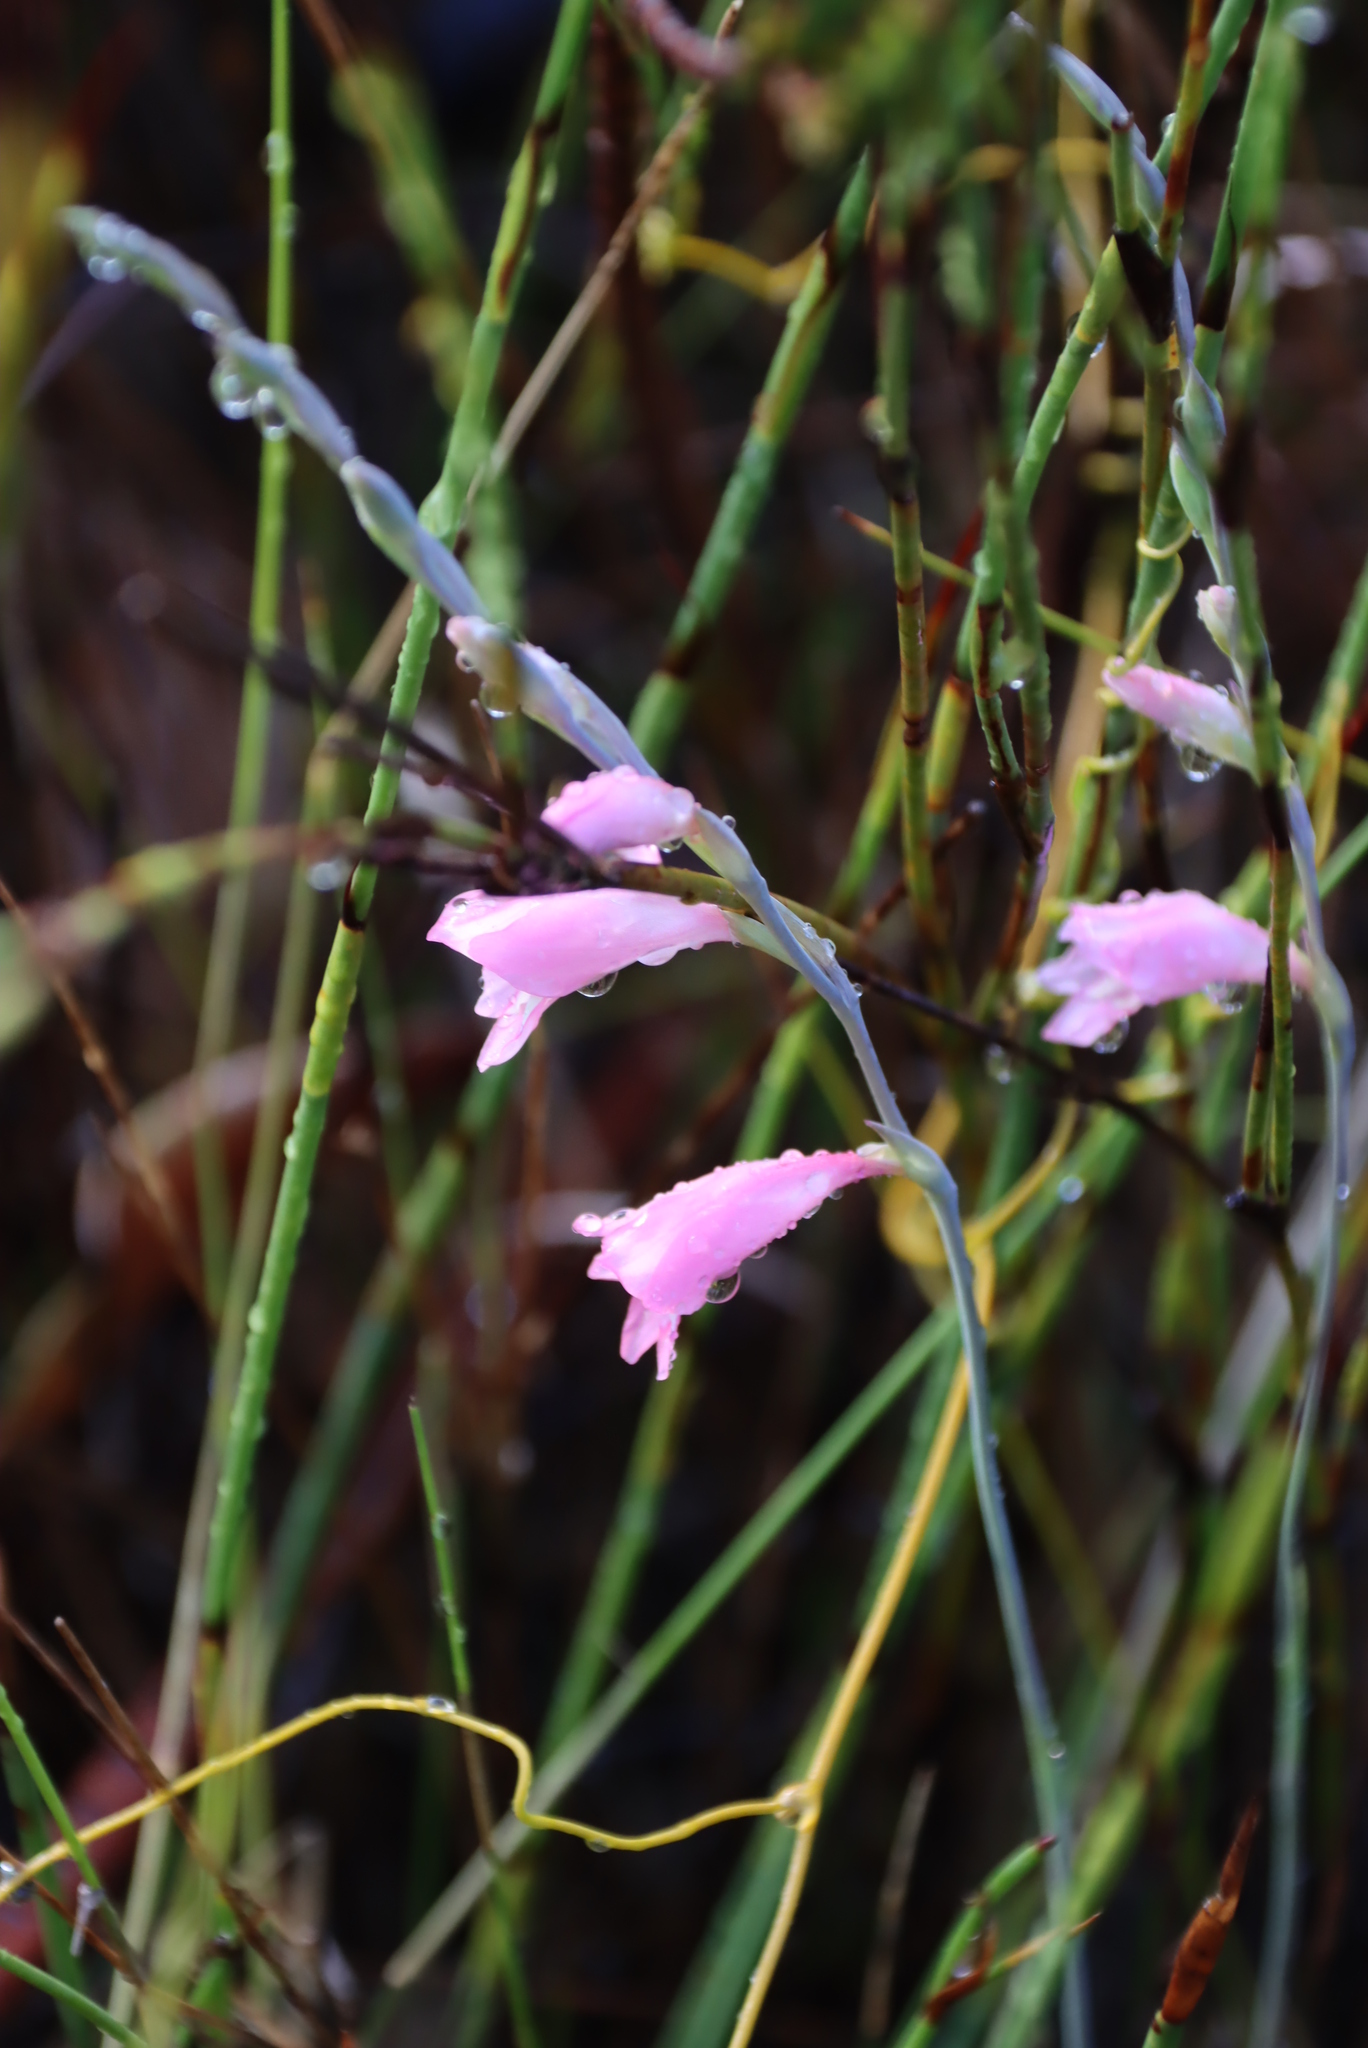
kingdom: Plantae
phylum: Tracheophyta
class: Liliopsida
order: Asparagales
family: Iridaceae
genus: Gladiolus
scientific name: Gladiolus brevifolius
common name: March pypie
